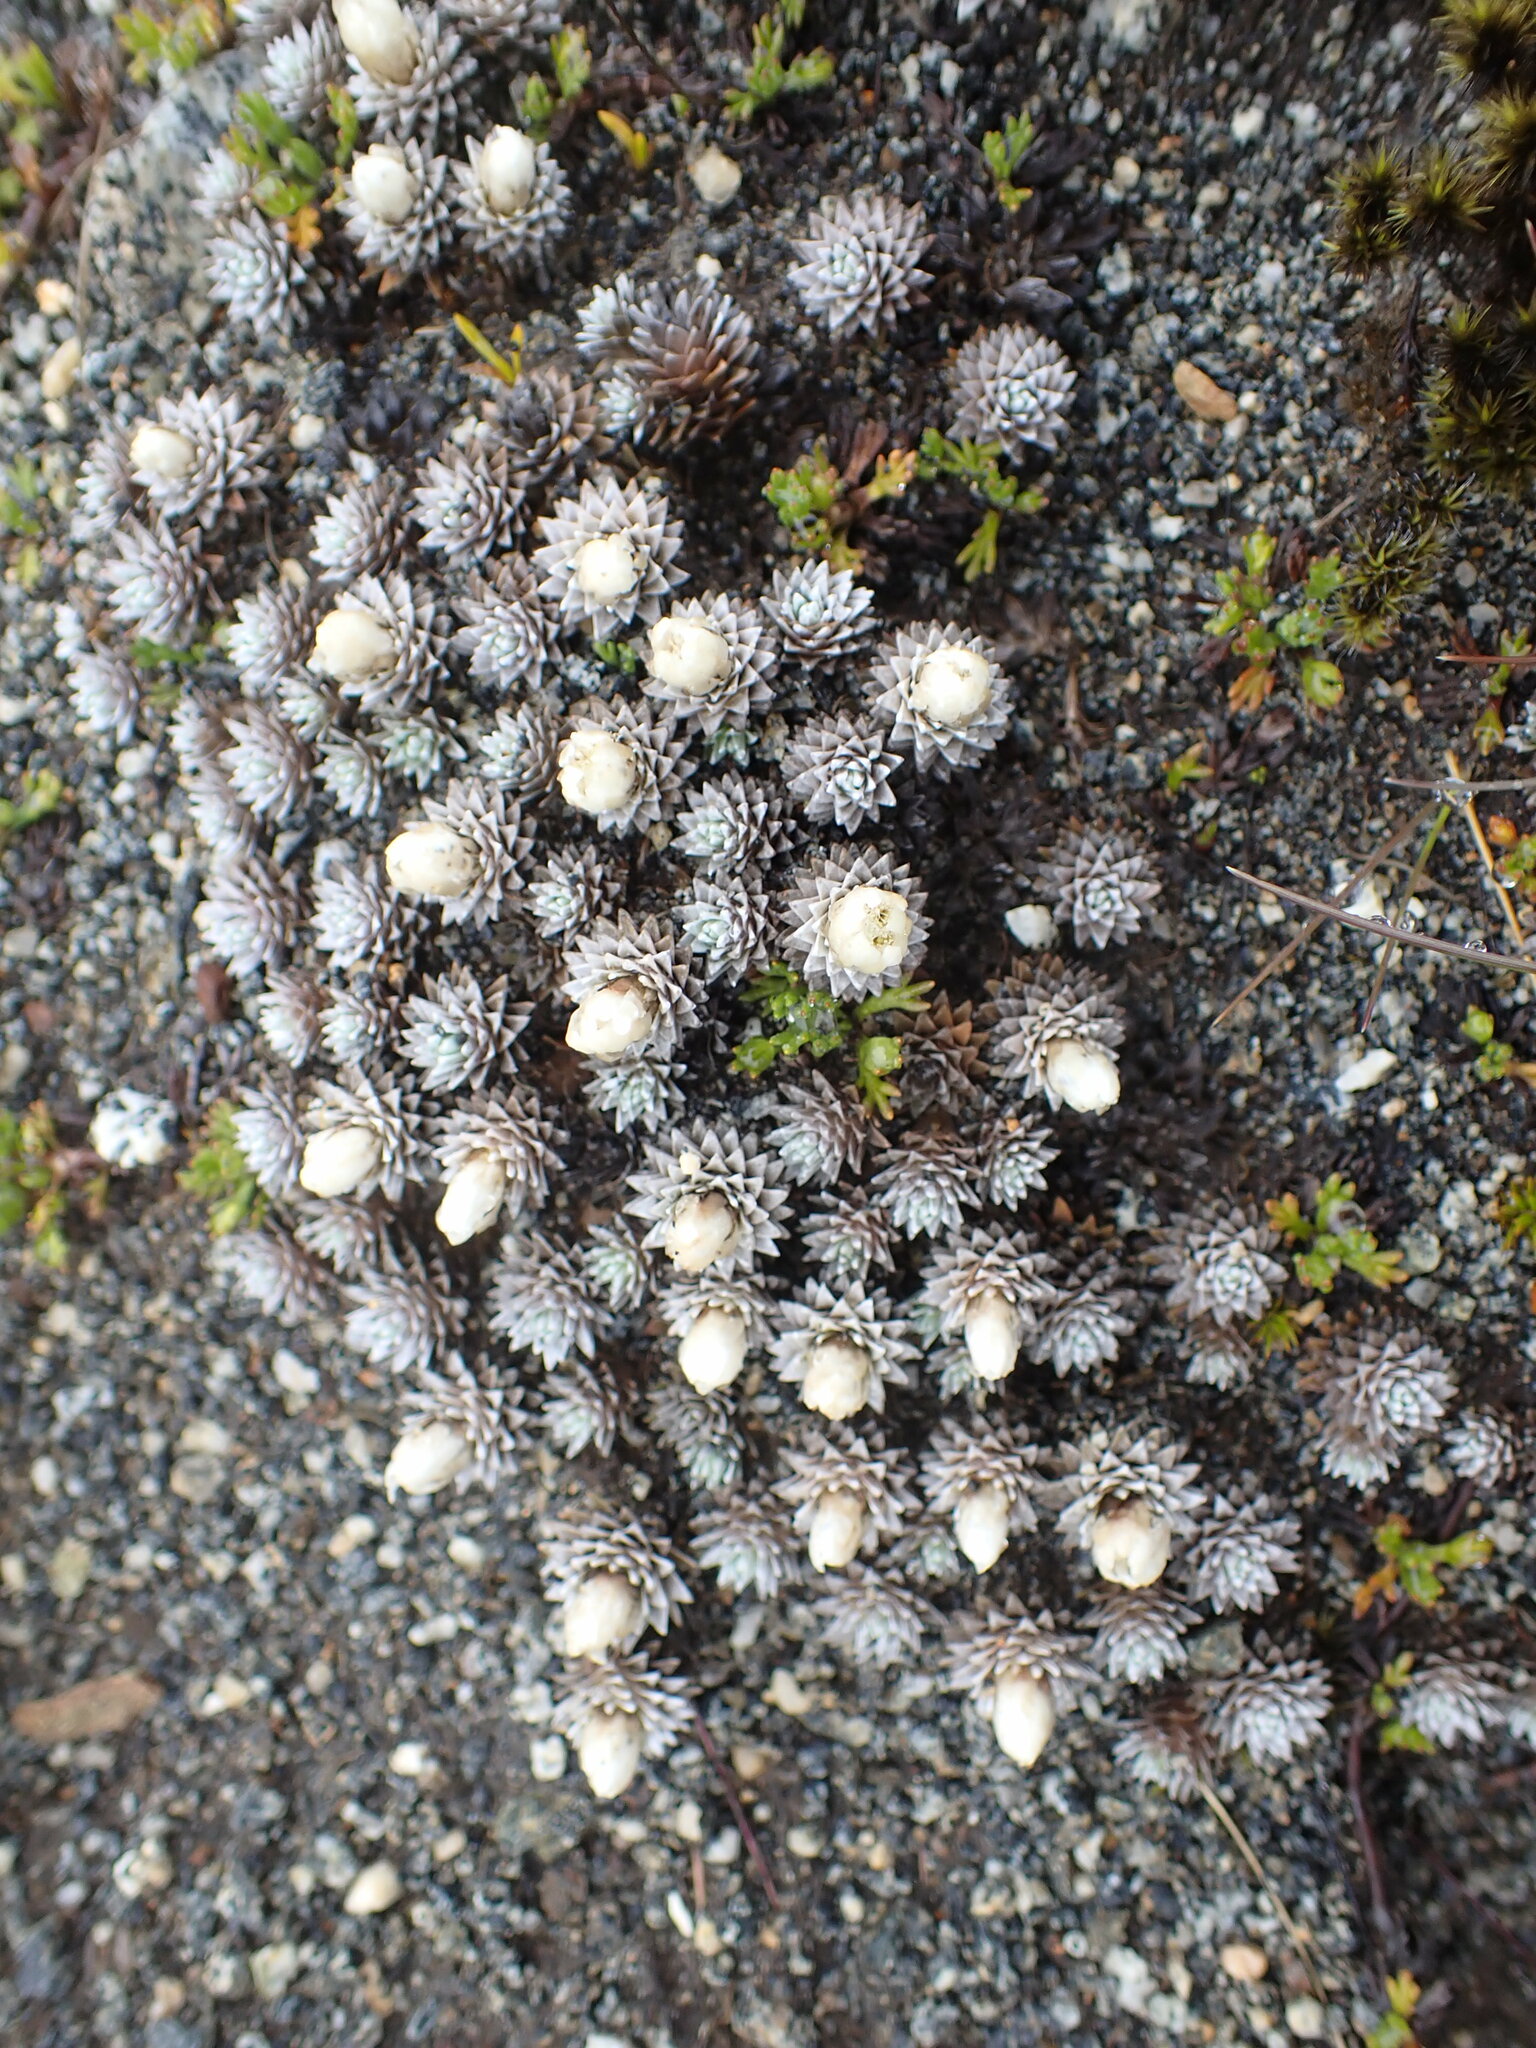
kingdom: Plantae
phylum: Tracheophyta
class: Magnoliopsida
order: Asterales
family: Asteraceae
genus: Raoulia
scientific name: Raoulia grandiflora
